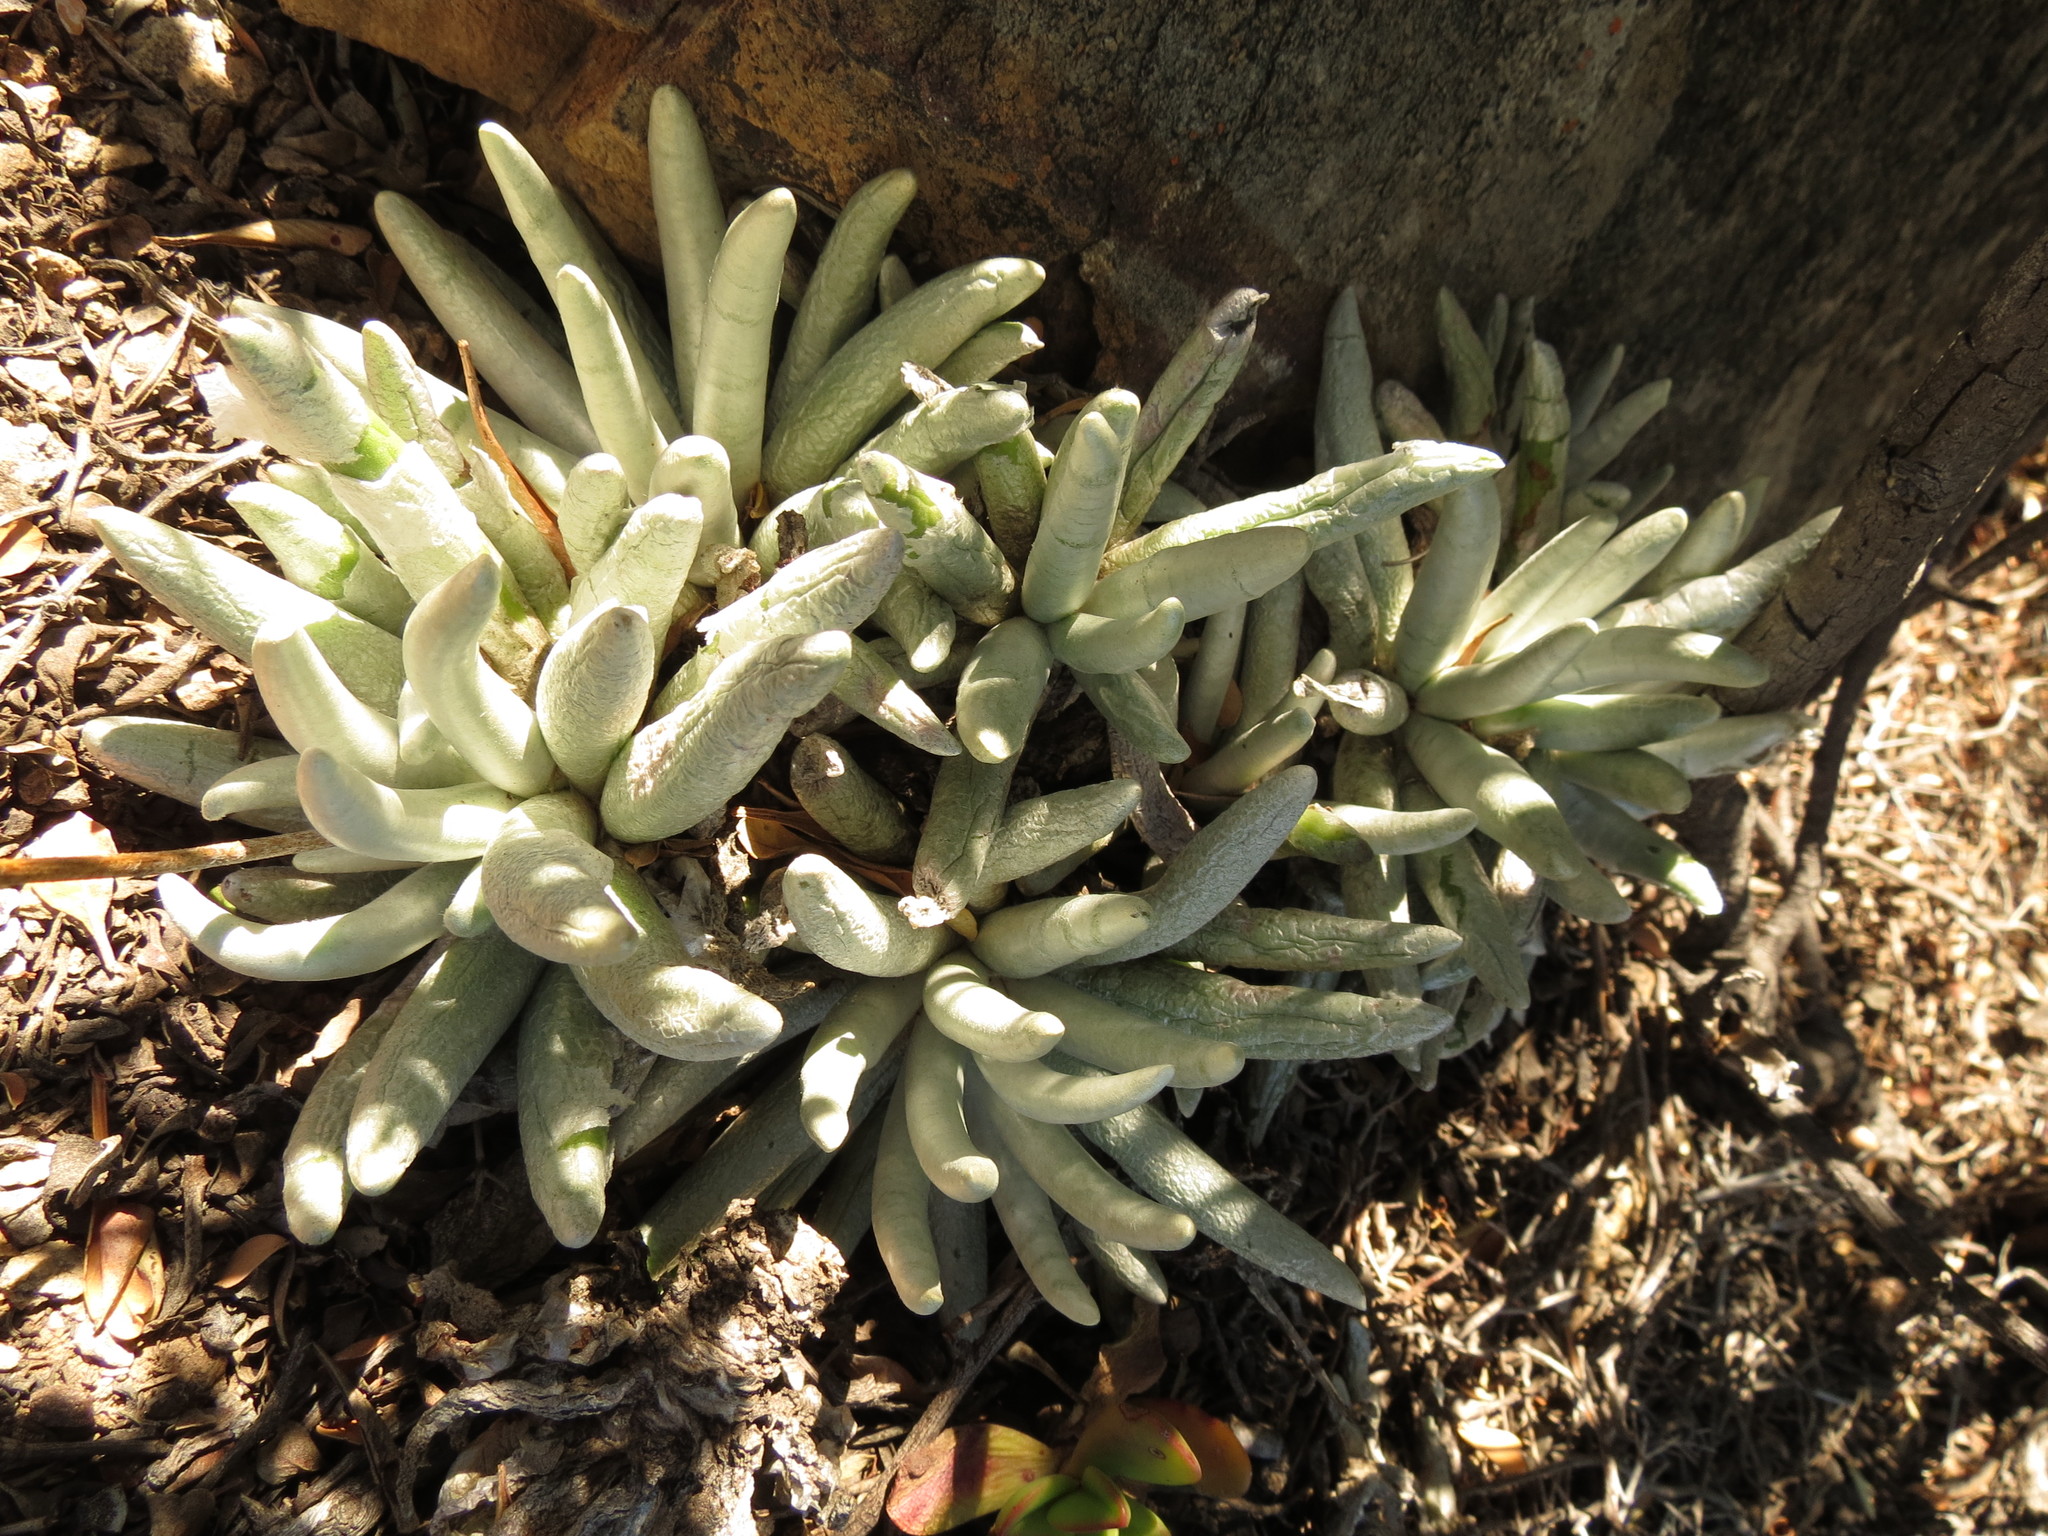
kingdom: Plantae
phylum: Tracheophyta
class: Magnoliopsida
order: Asterales
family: Asteraceae
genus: Caputia
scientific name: Caputia scaposa
